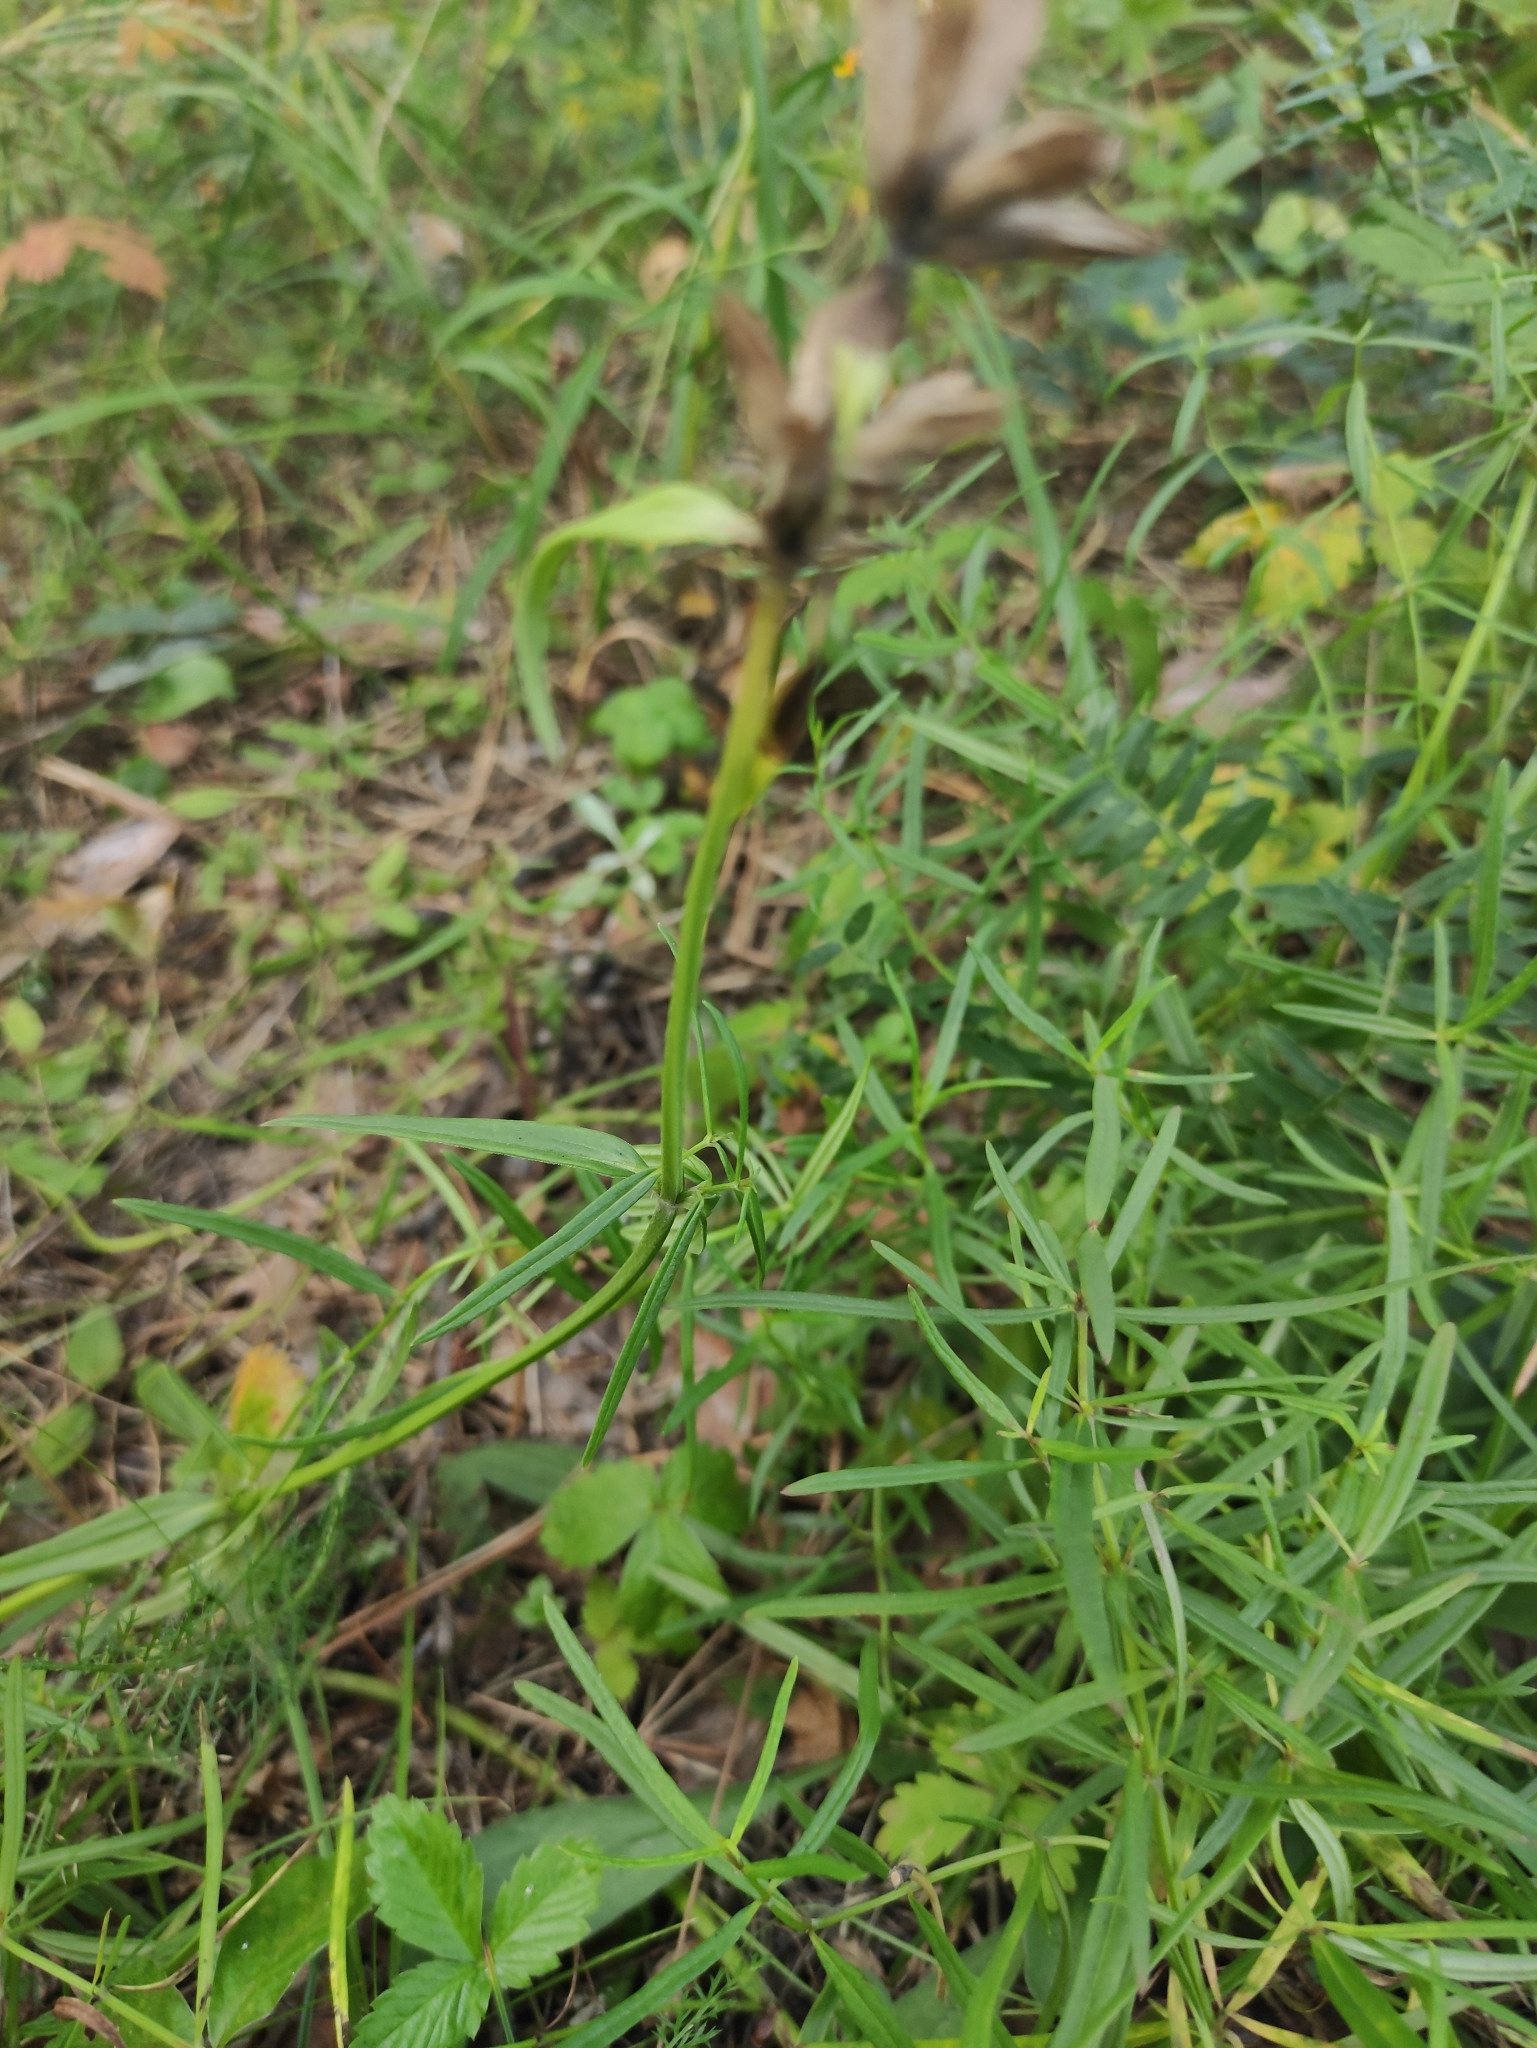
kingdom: Plantae
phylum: Tracheophyta
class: Magnoliopsida
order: Lamiales
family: Lamiaceae
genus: Dracocephalum
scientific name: Dracocephalum ruyschiana
